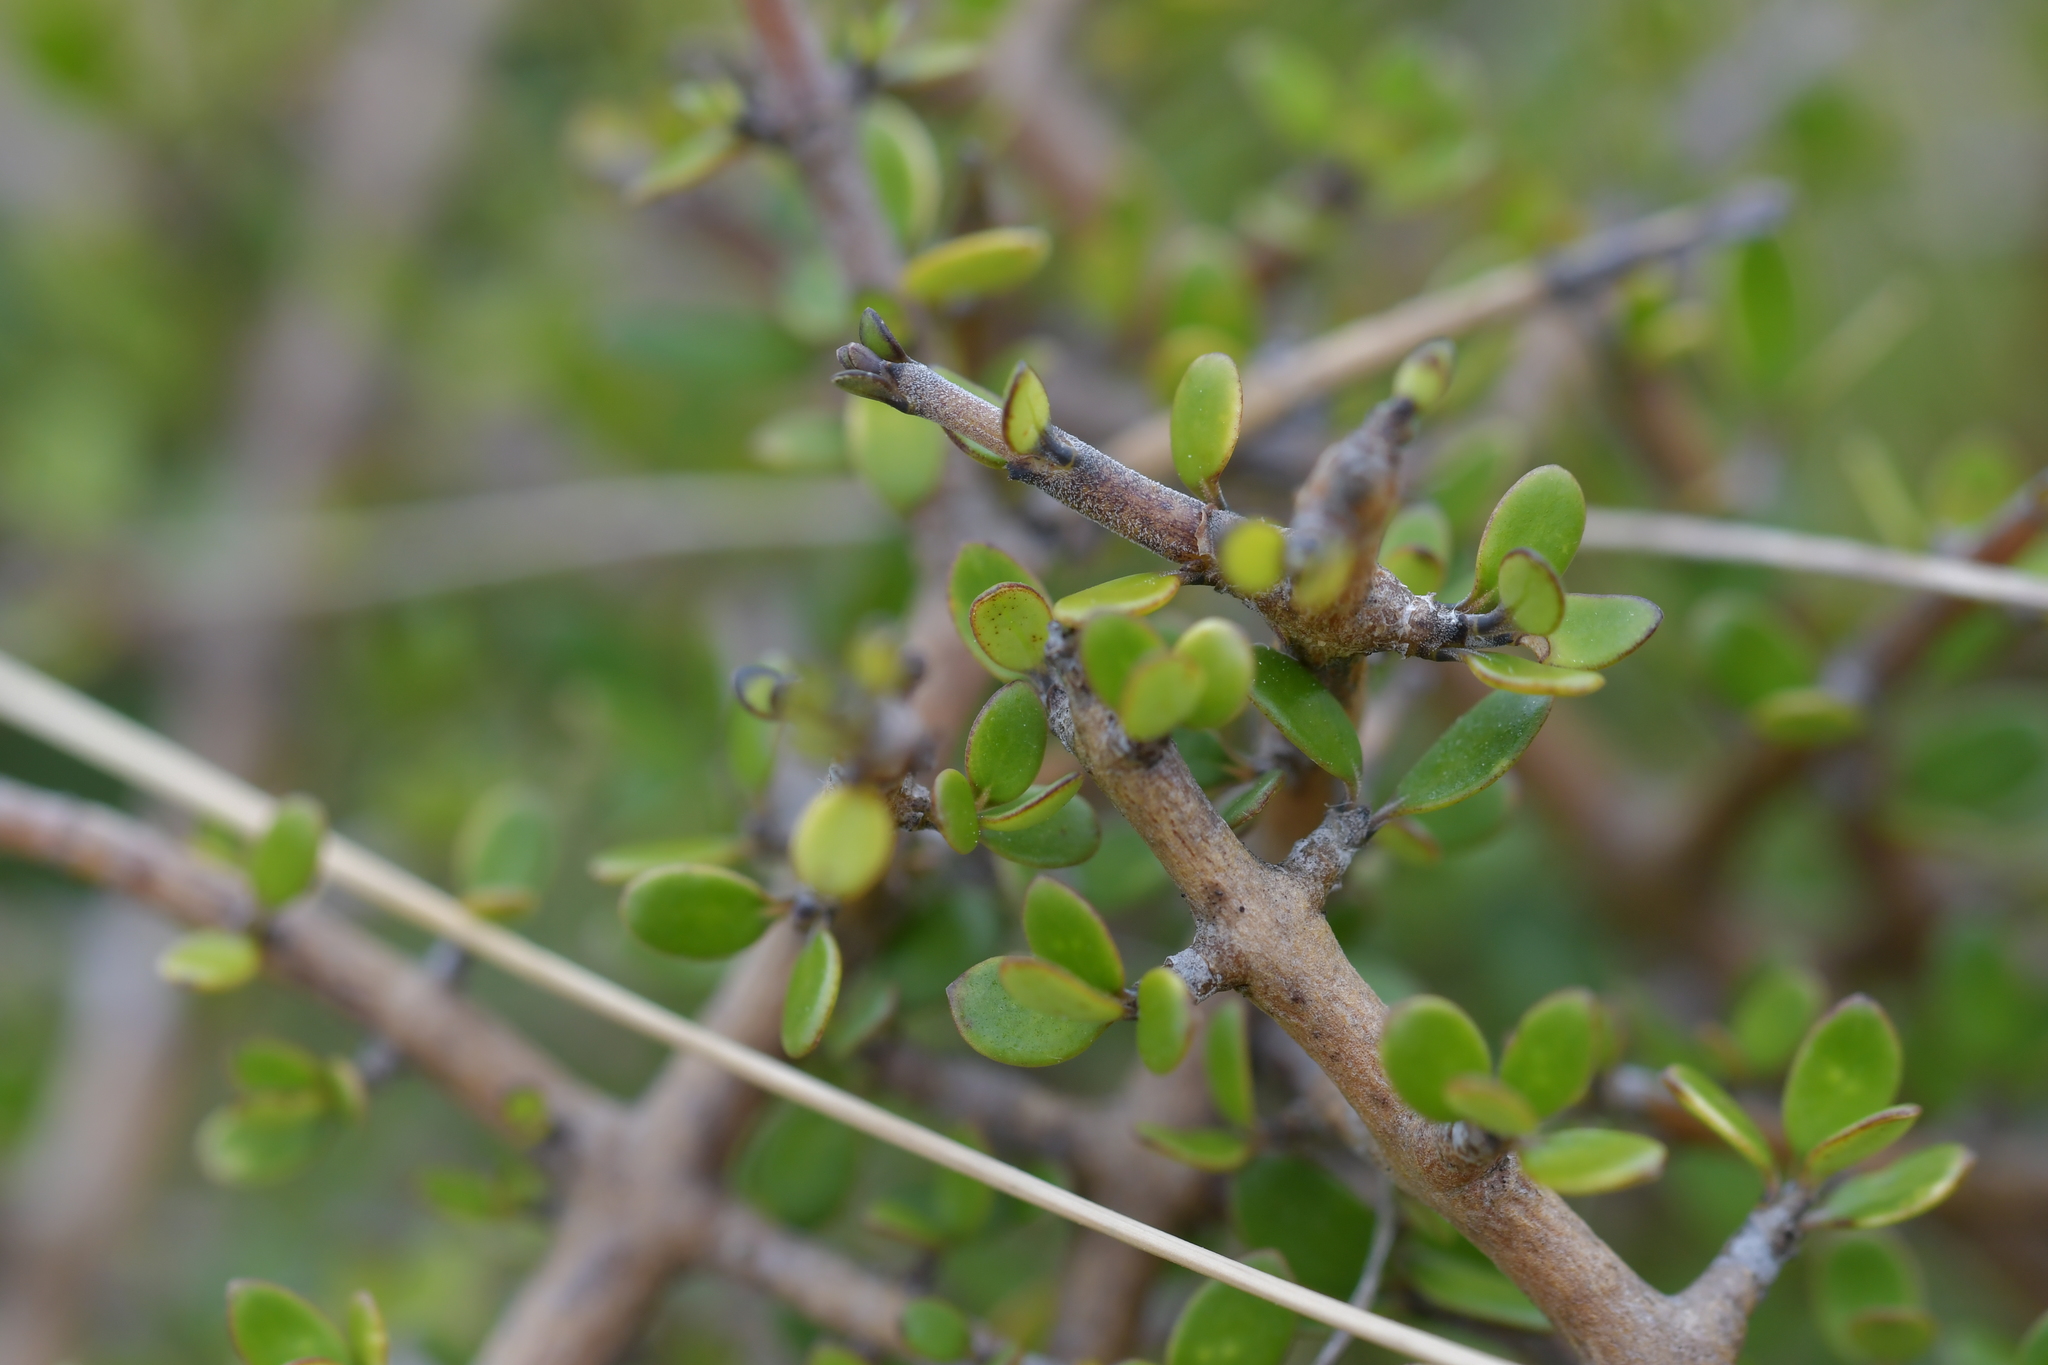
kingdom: Plantae
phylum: Tracheophyta
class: Magnoliopsida
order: Gentianales
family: Rubiaceae
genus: Coprosma
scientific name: Coprosma propinqua
